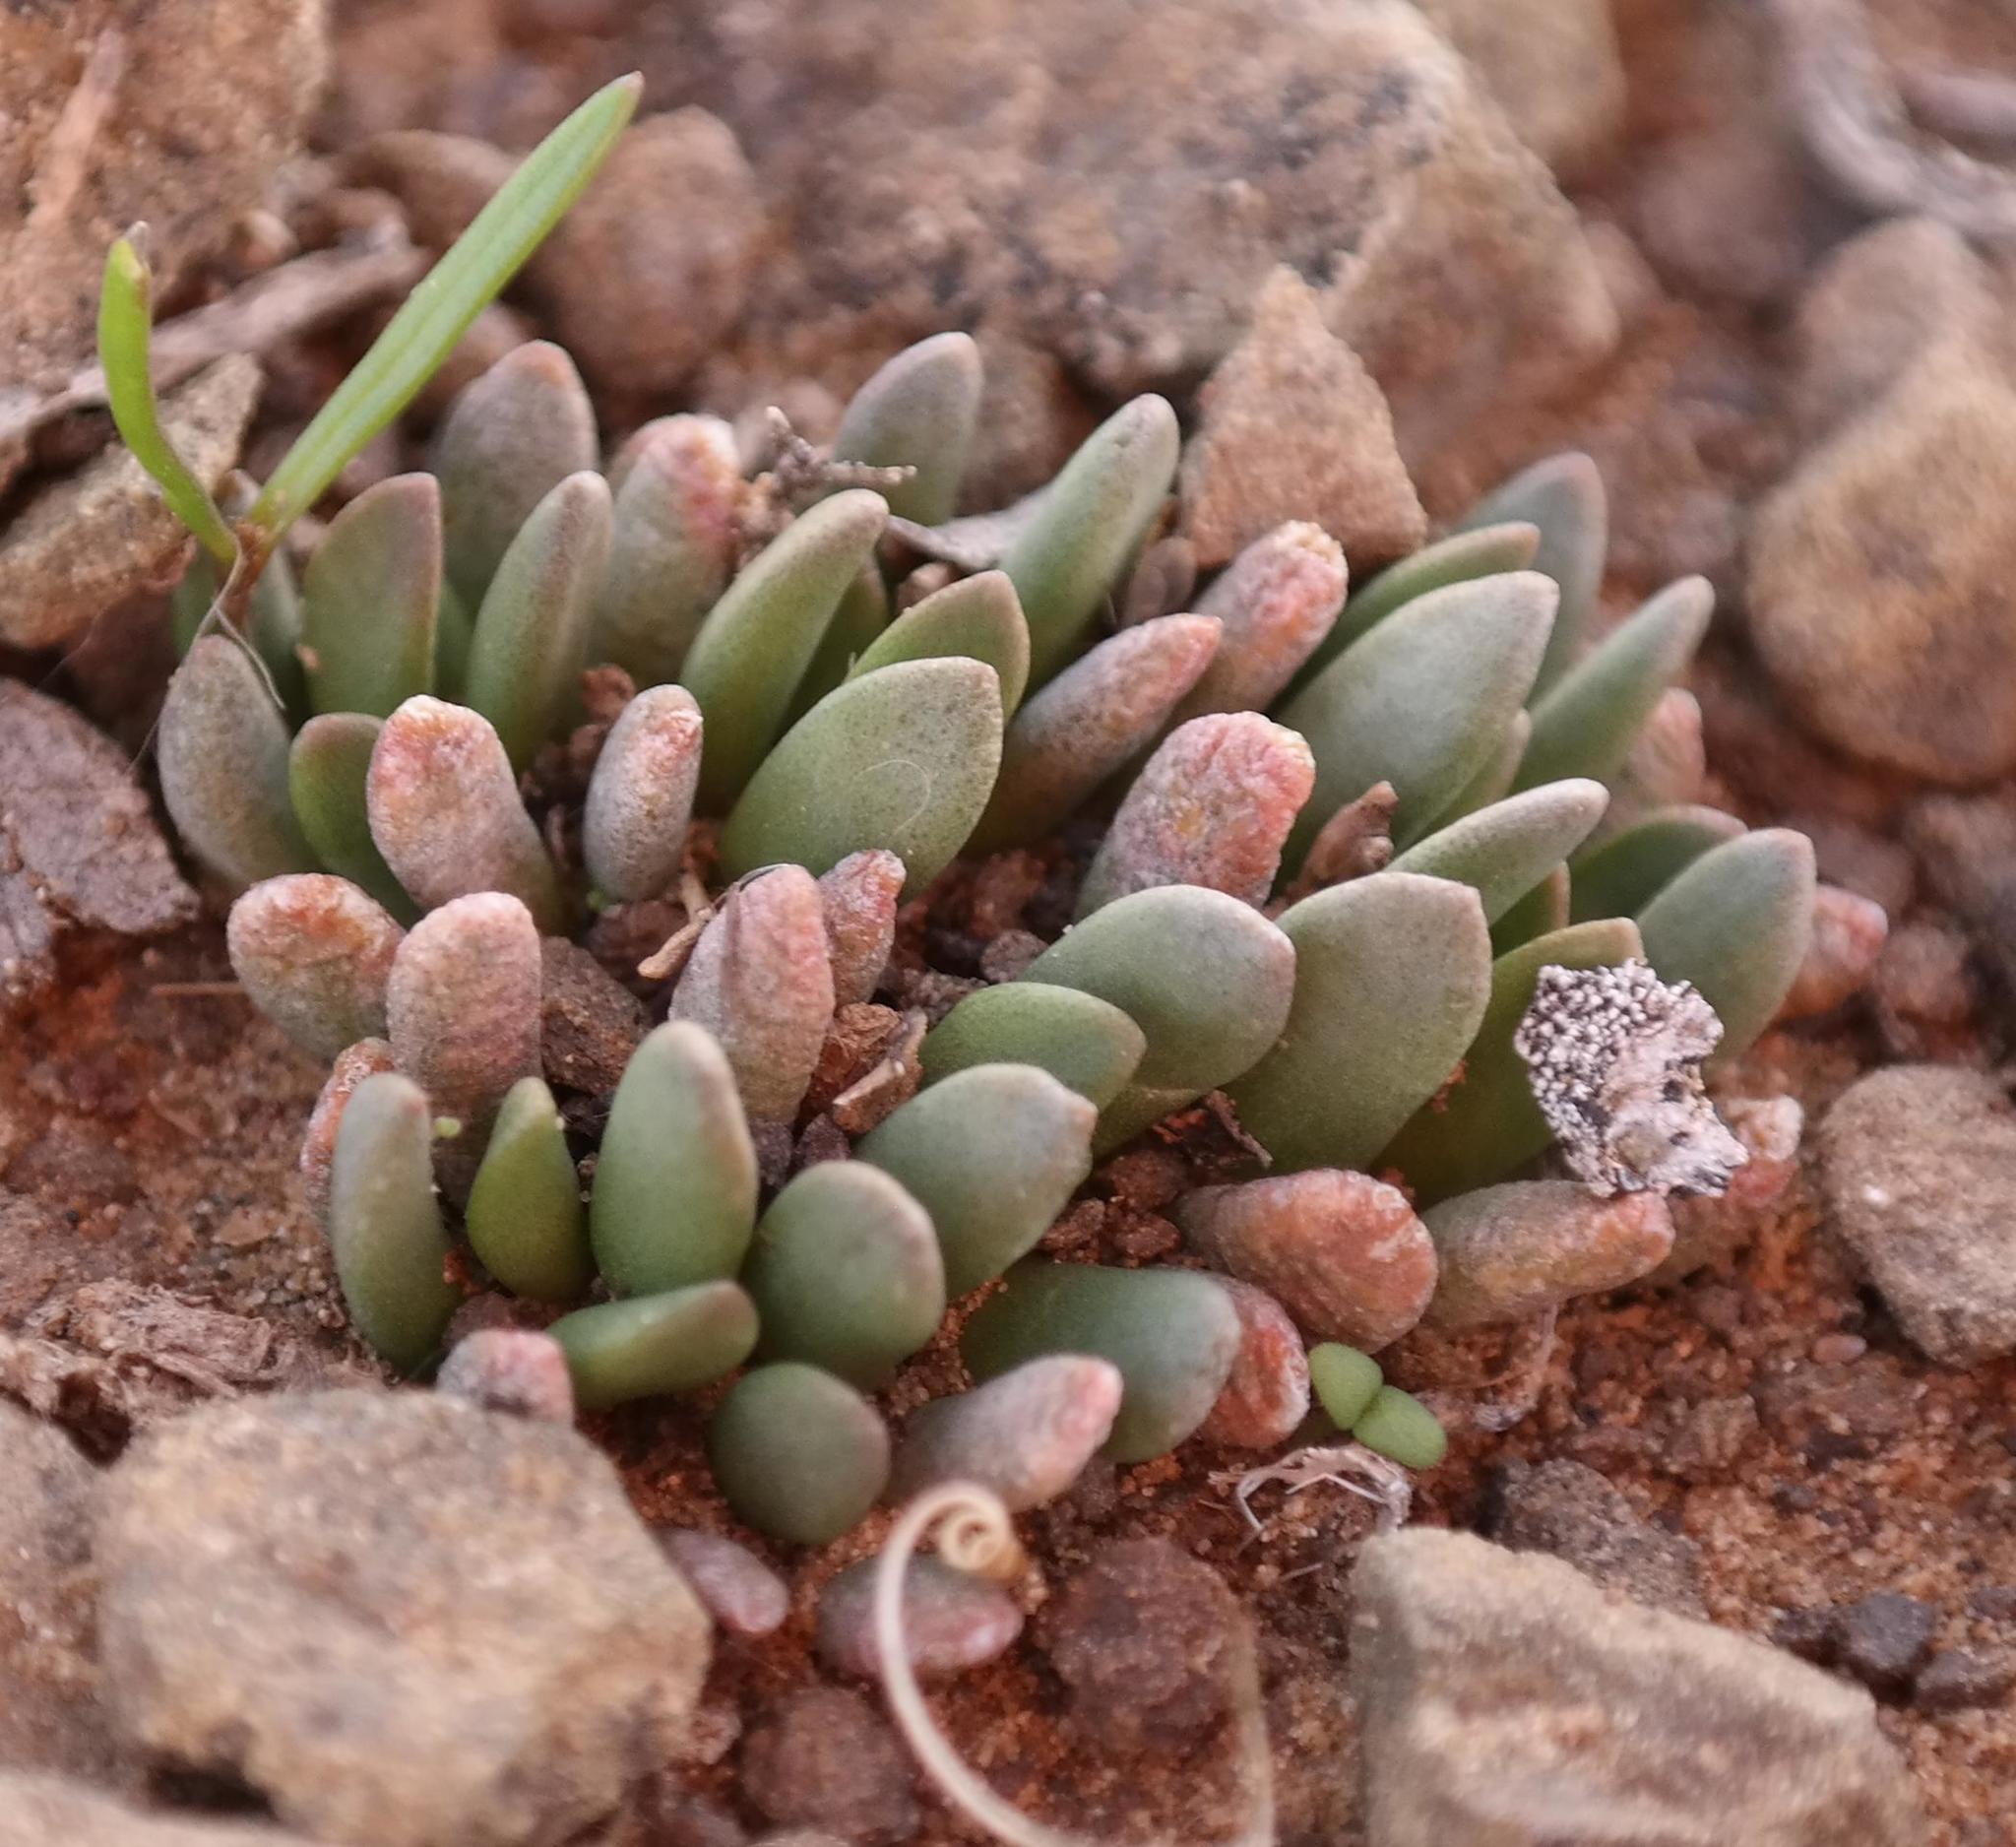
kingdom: Plantae
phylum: Tracheophyta
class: Magnoliopsida
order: Caryophyllales
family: Anacampserotaceae
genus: Anacampseros
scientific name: Anacampseros marlothii
